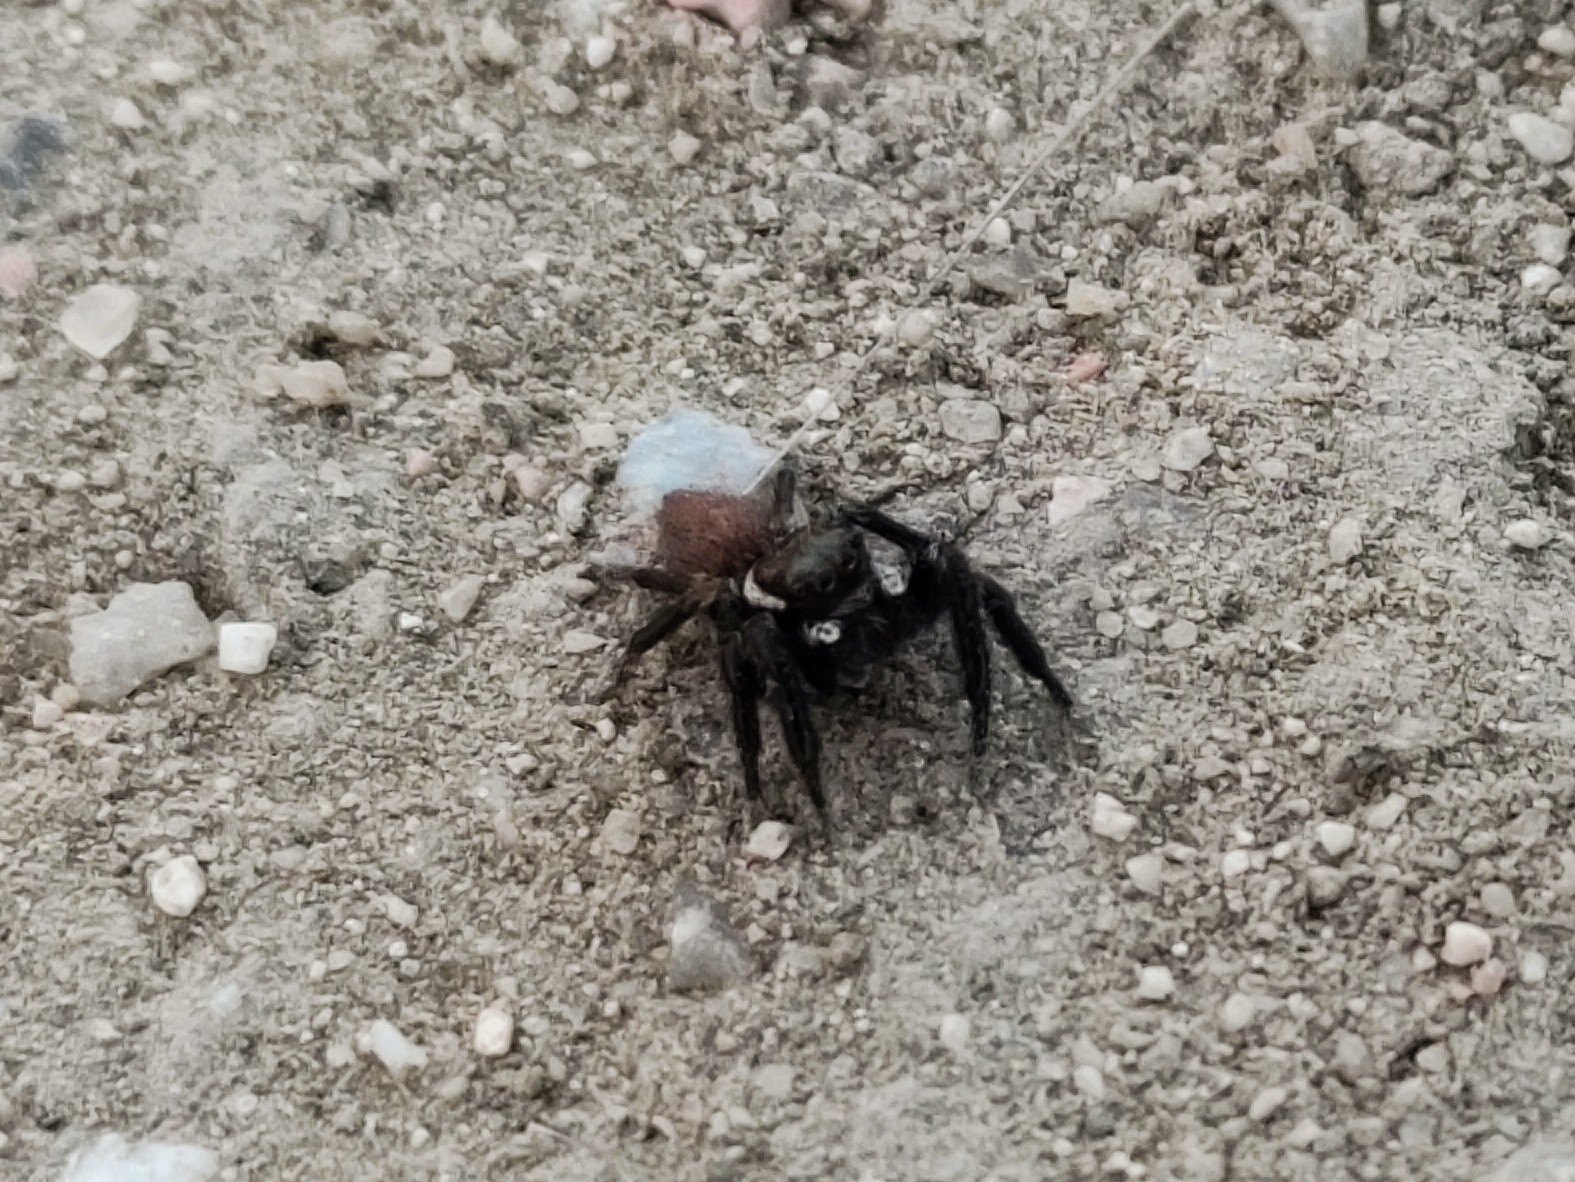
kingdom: Animalia
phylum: Arthropoda
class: Arachnida
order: Araneae
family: Salticidae
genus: Evarcha
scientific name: Evarcha jucunda
